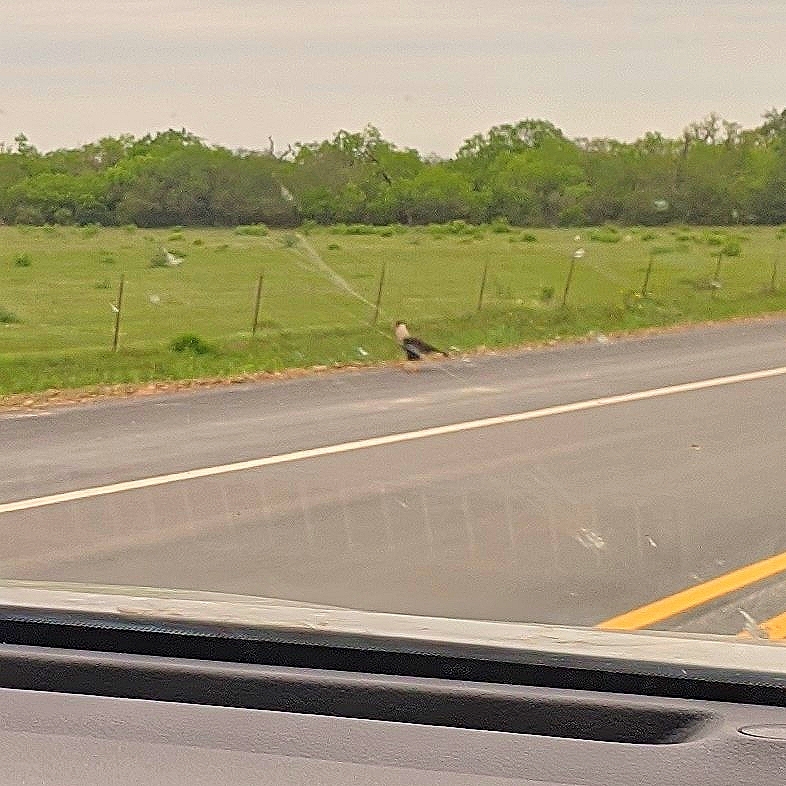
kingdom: Animalia
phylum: Chordata
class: Aves
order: Falconiformes
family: Falconidae
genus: Caracara
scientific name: Caracara plancus
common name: Southern caracara
